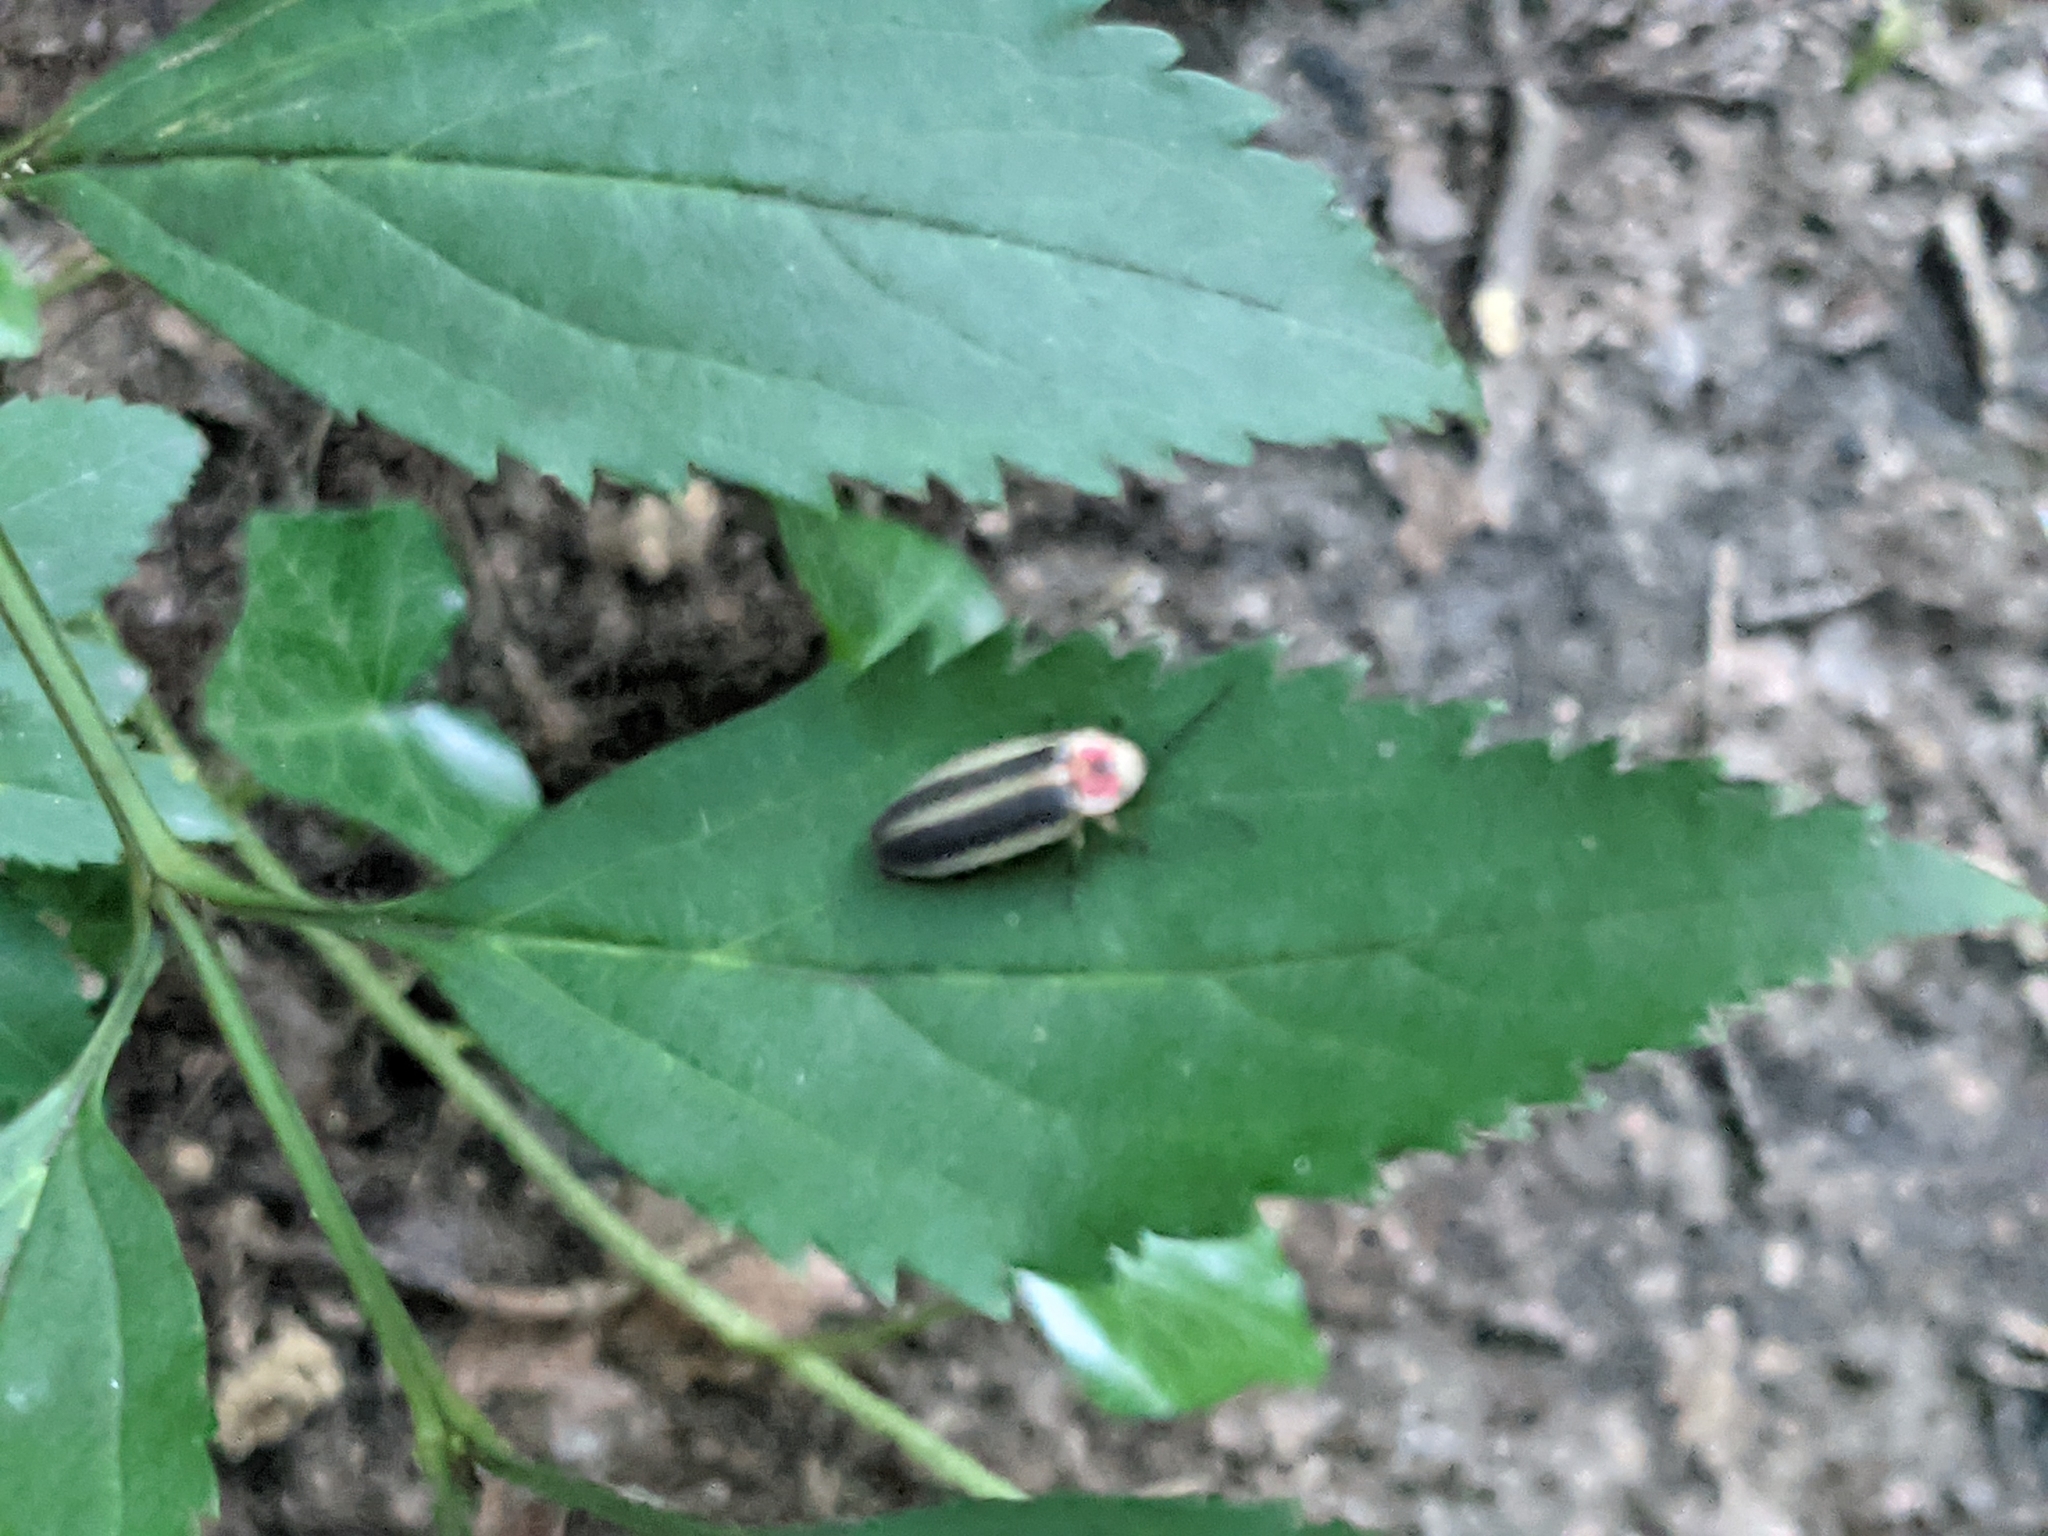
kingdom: Animalia
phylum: Arthropoda
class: Insecta
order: Coleoptera
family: Lampyridae
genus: Photinus
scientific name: Photinus pyralis
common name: Big dipper firefly
